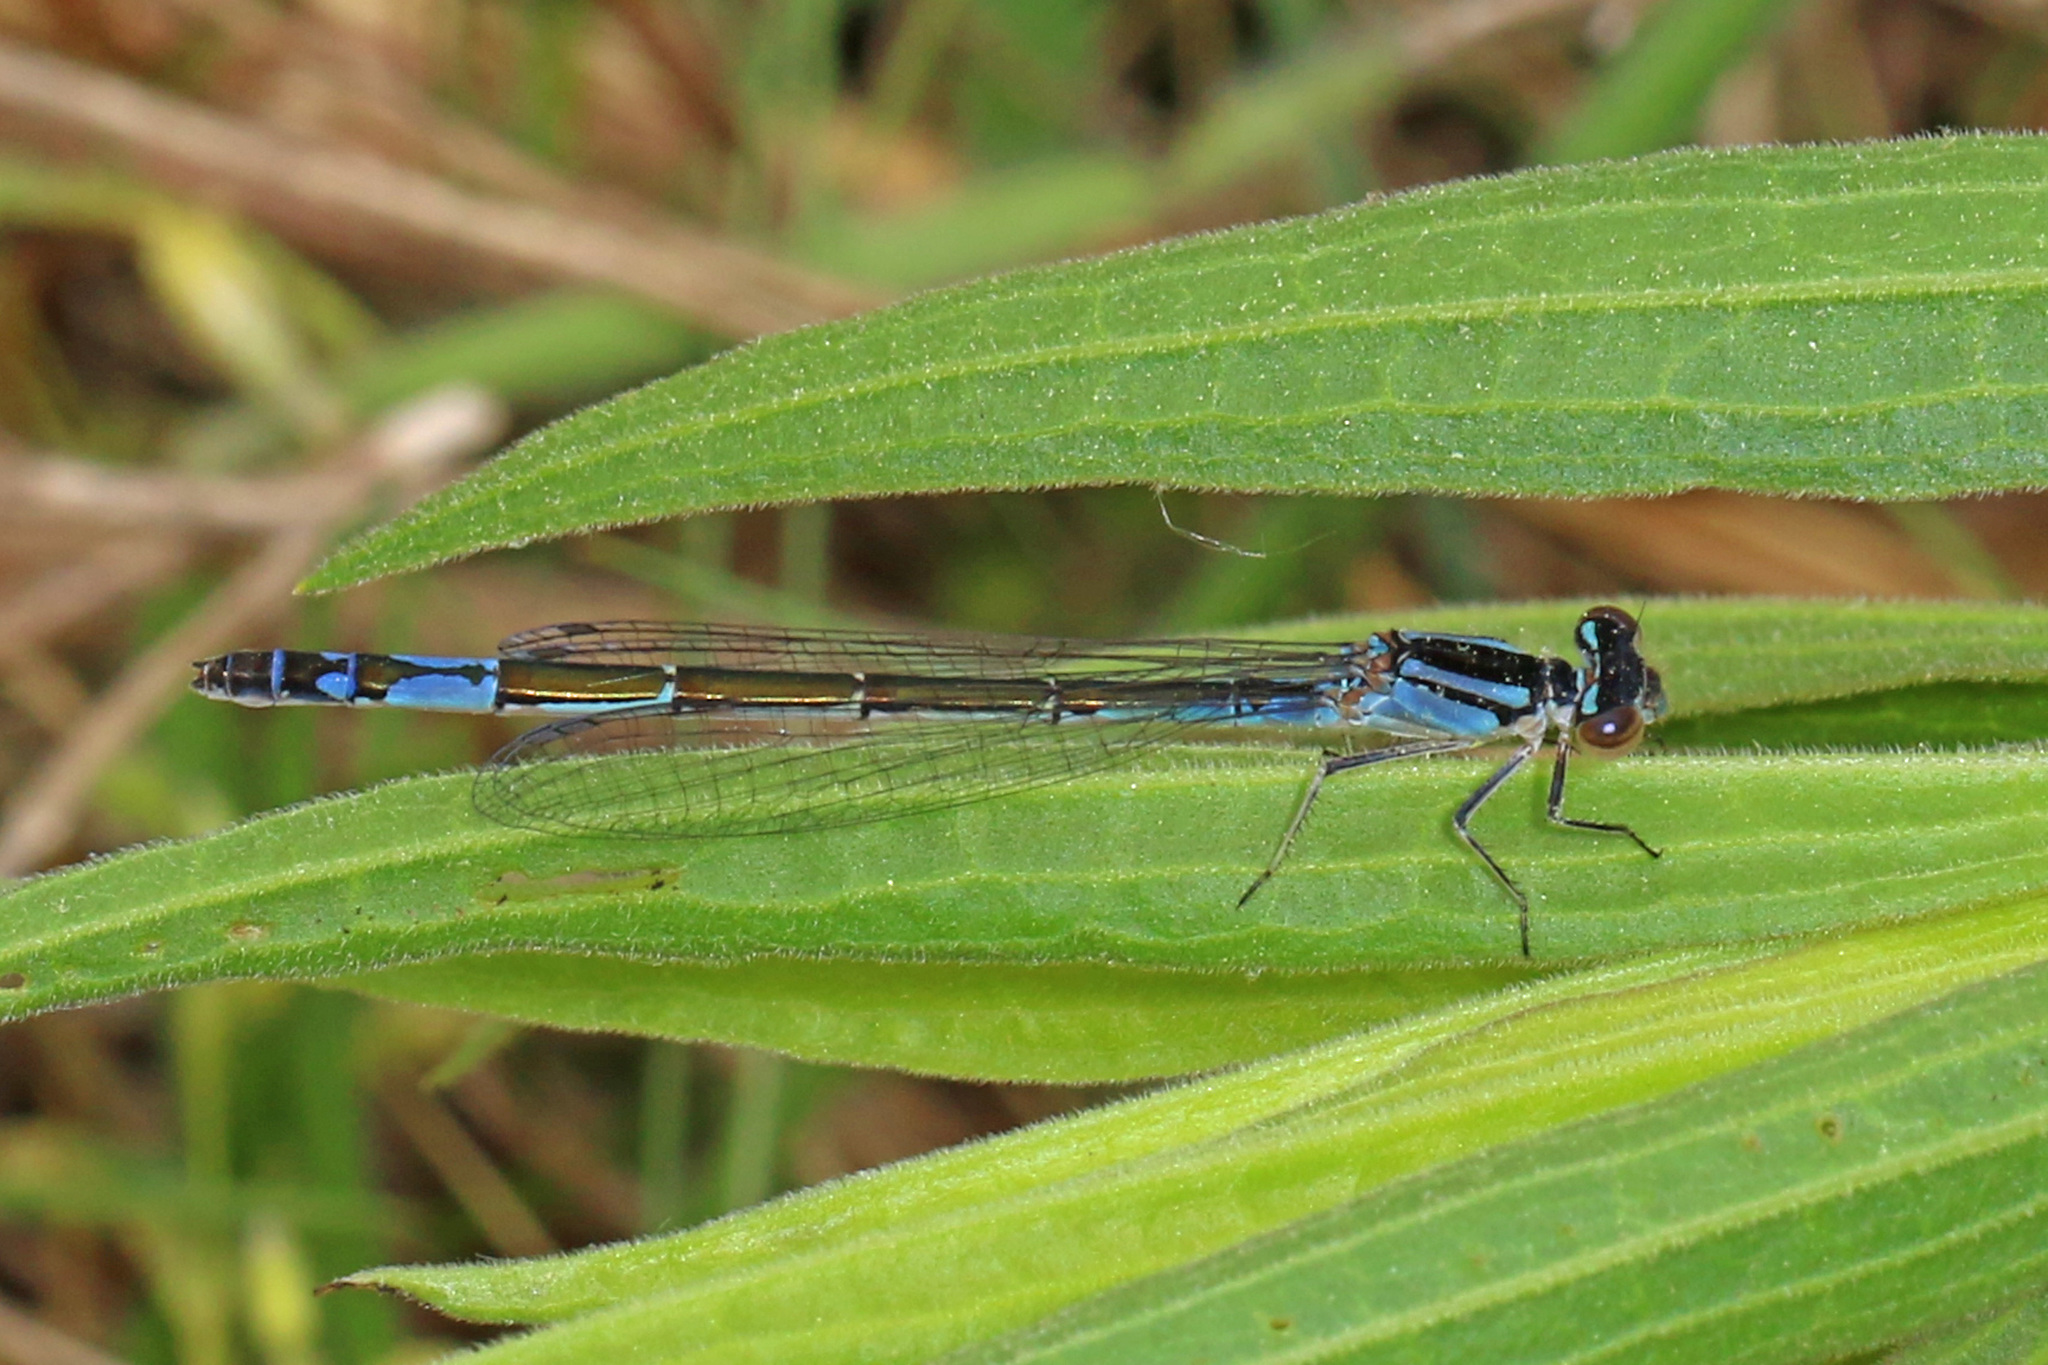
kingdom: Animalia
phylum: Arthropoda
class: Insecta
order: Odonata
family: Coenagrionidae
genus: Enallagma
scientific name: Enallagma aspersum
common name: Azure bluet
